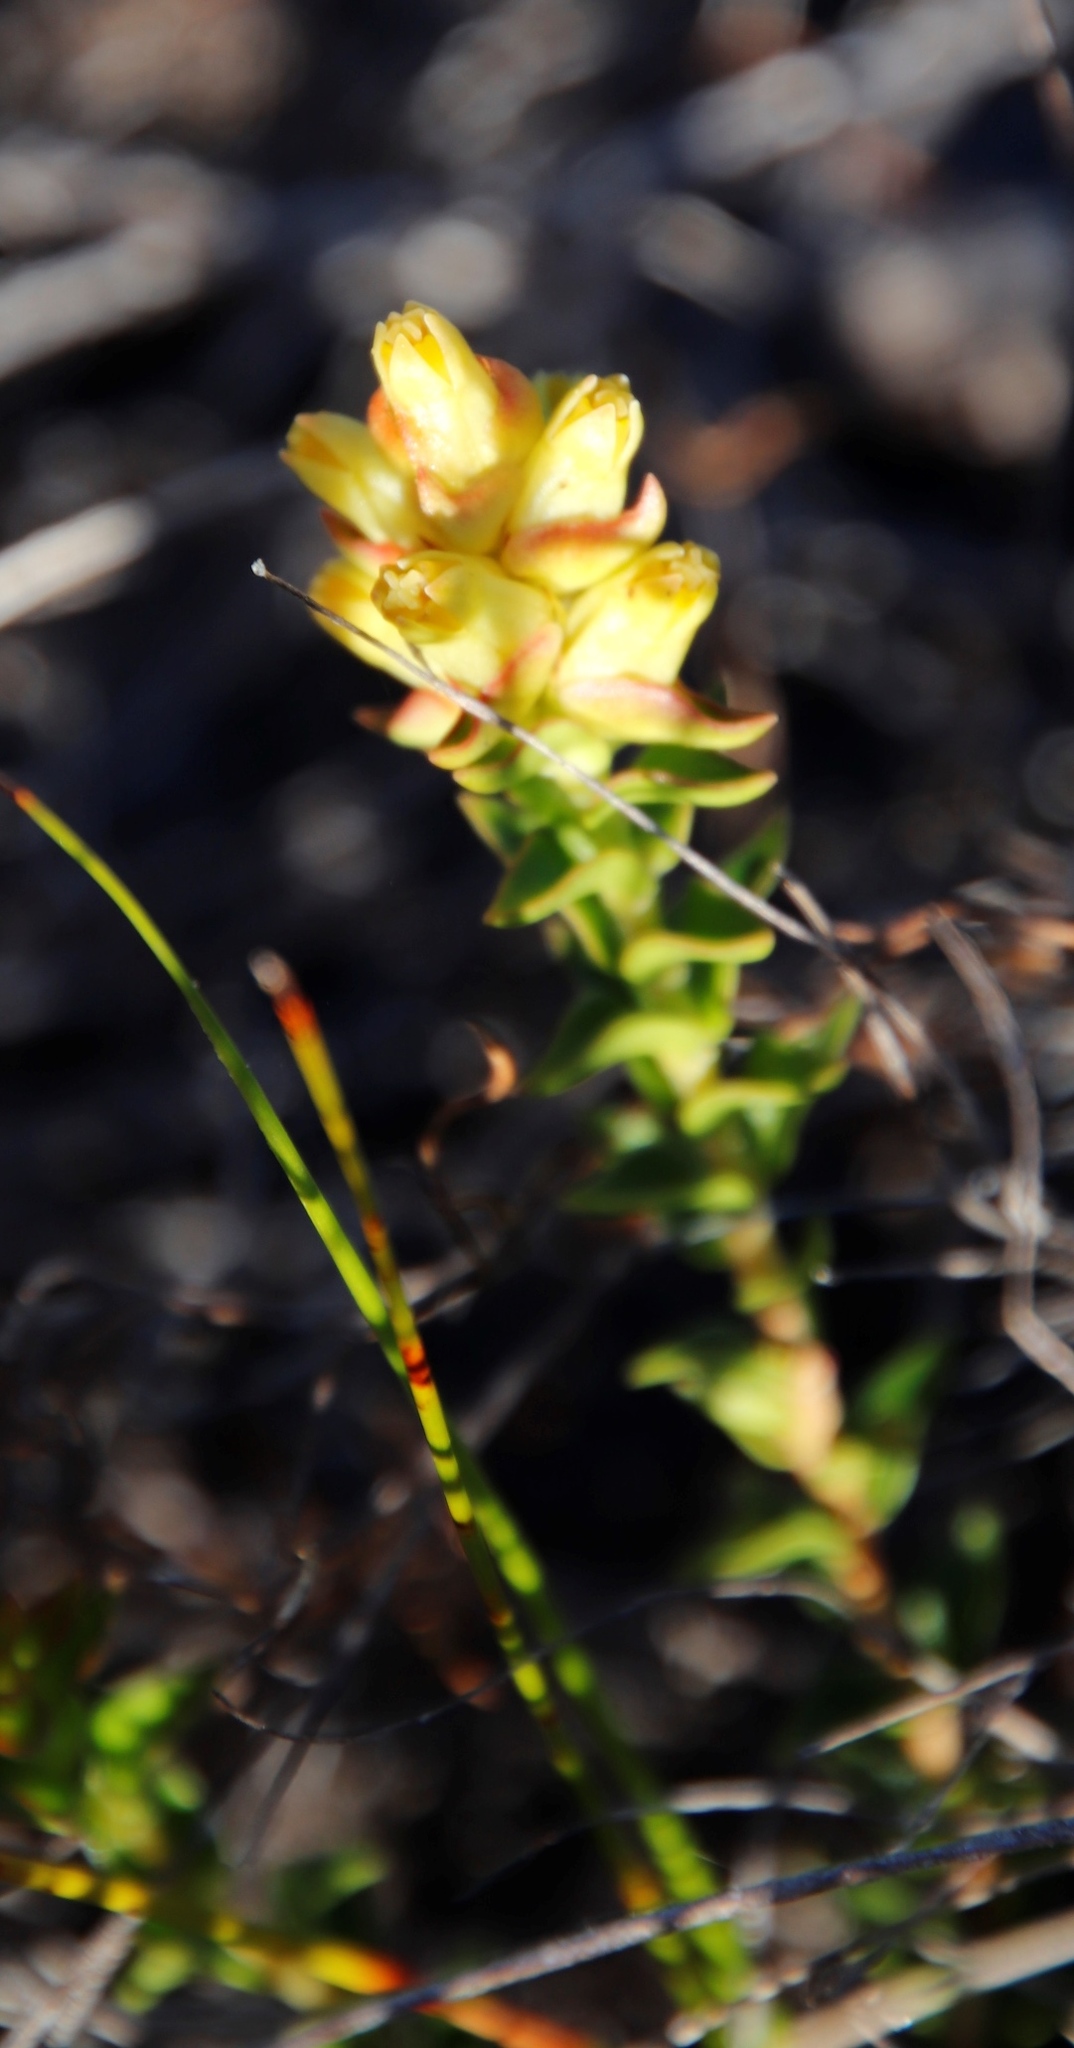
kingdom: Plantae
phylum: Tracheophyta
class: Magnoliopsida
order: Myrtales
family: Penaeaceae
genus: Penaea
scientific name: Penaea mucronata
